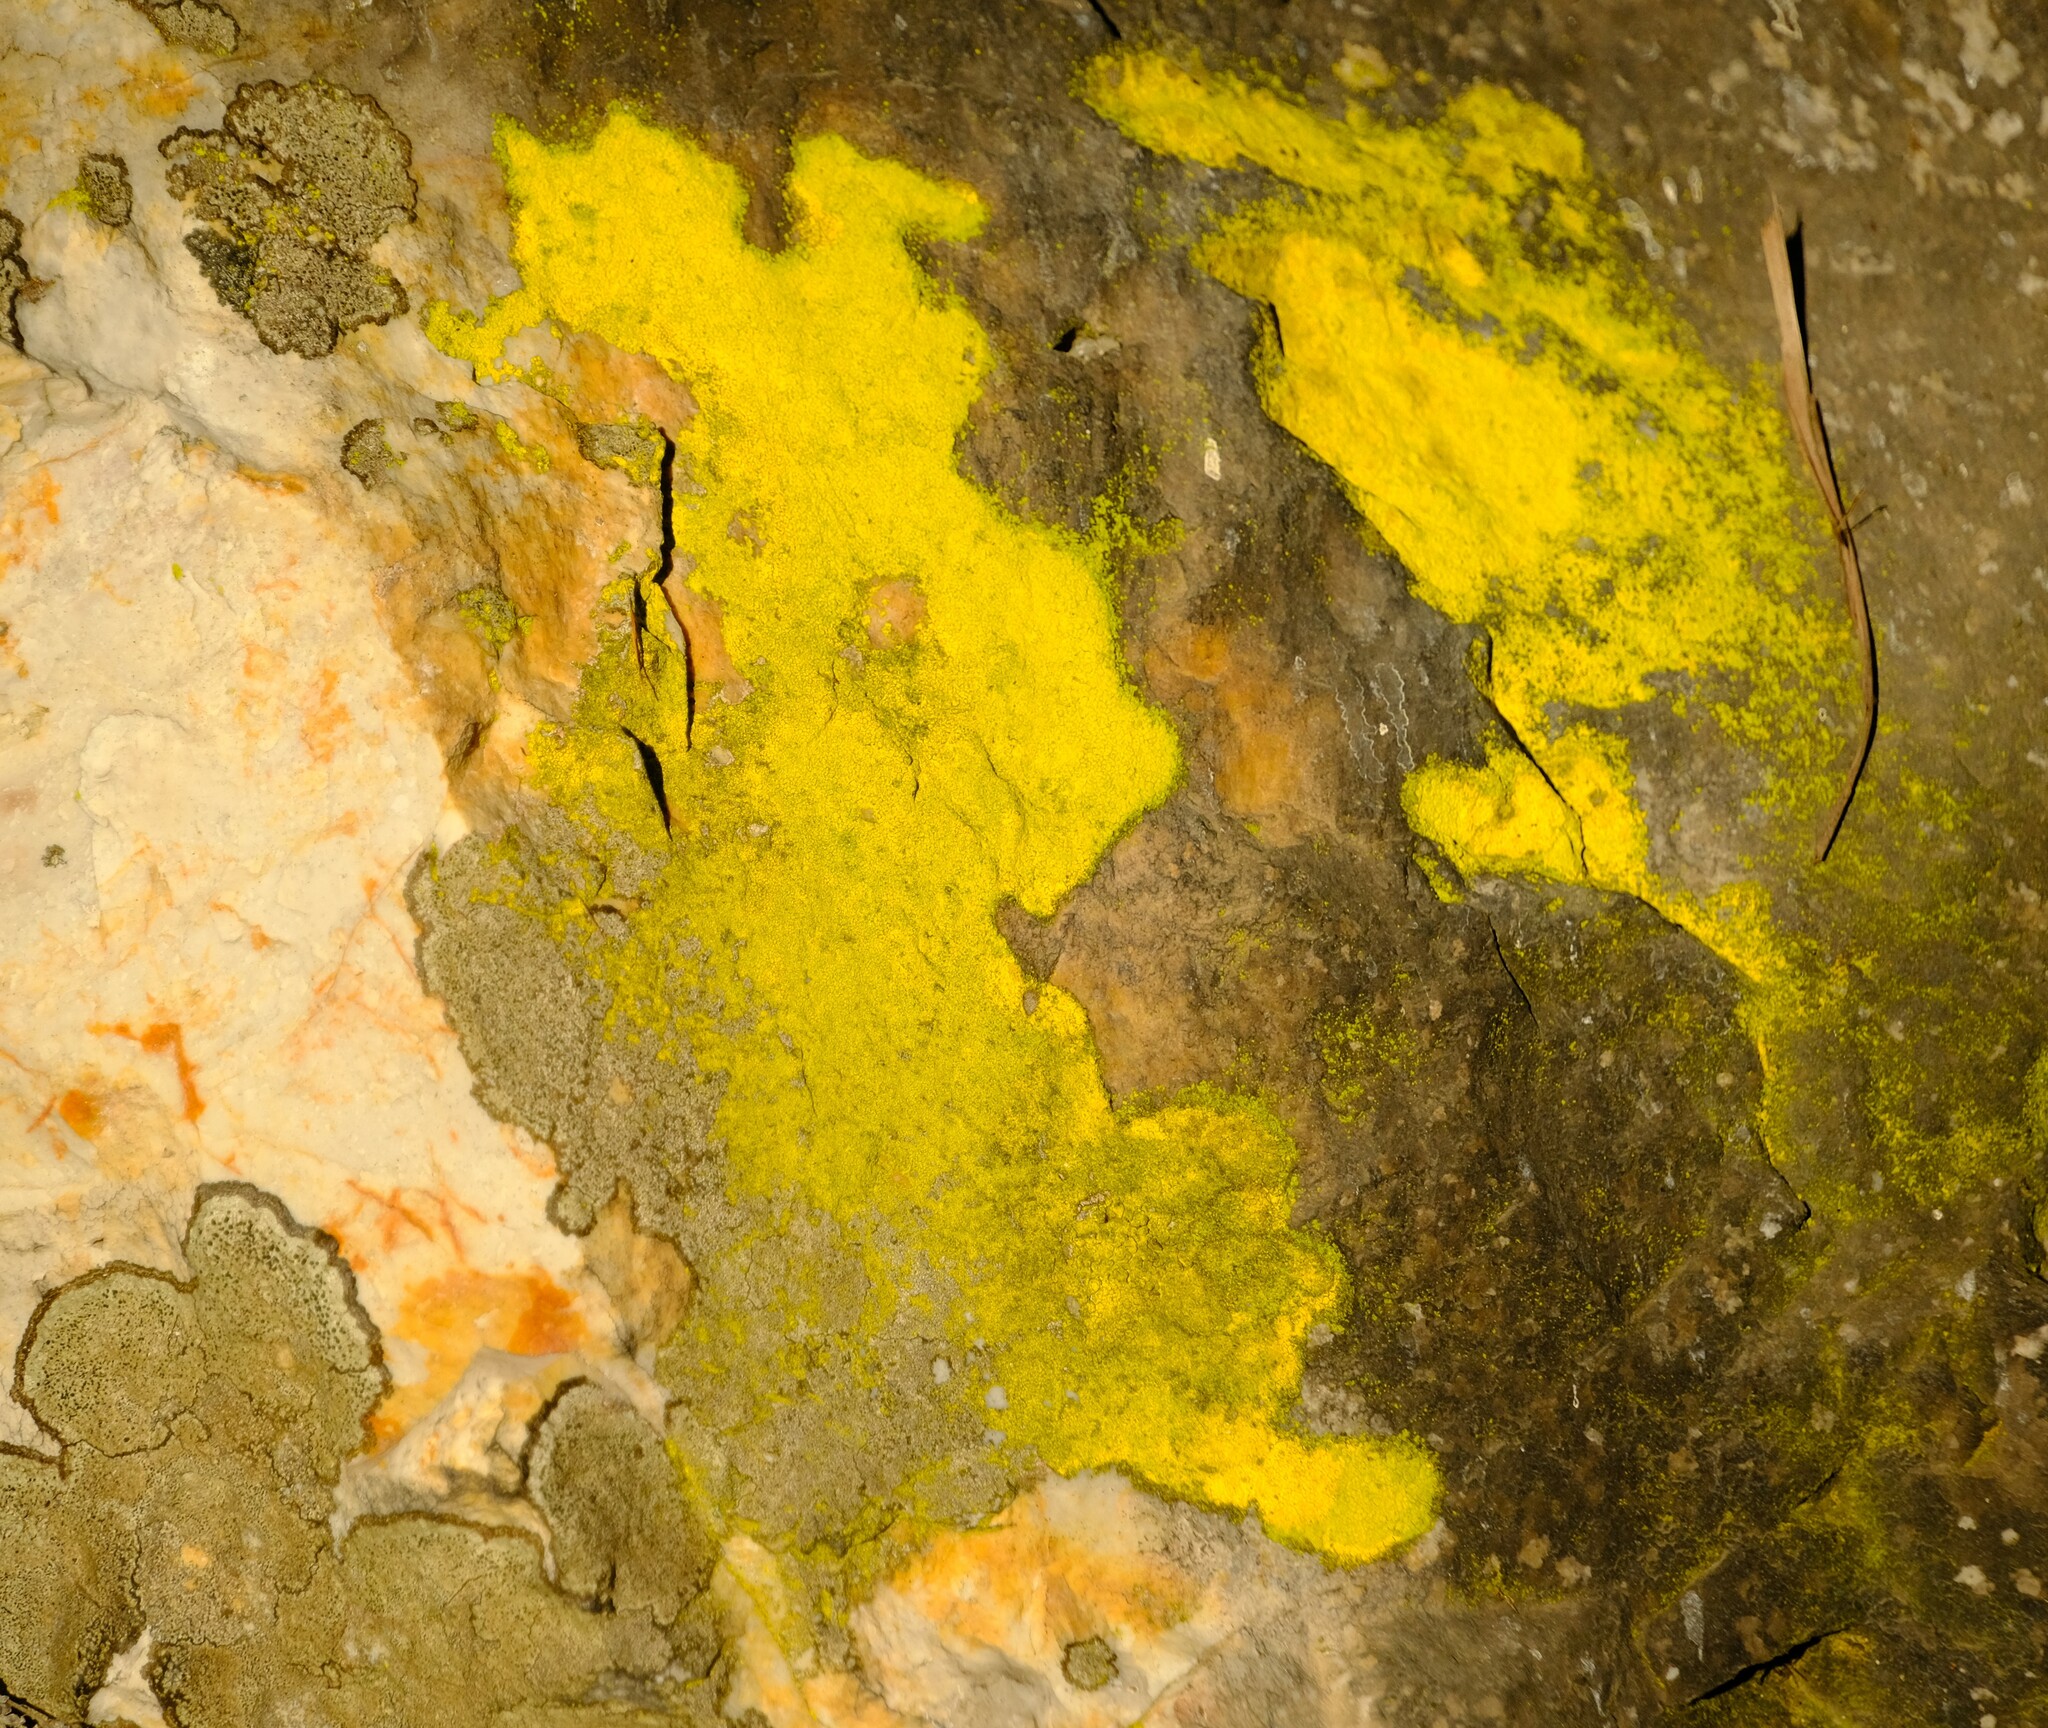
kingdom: Fungi
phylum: Ascomycota
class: Arthoniomycetes
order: Arthoniales
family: Chrysotrichaceae
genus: Chrysothrix
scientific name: Chrysothrix candelaris
